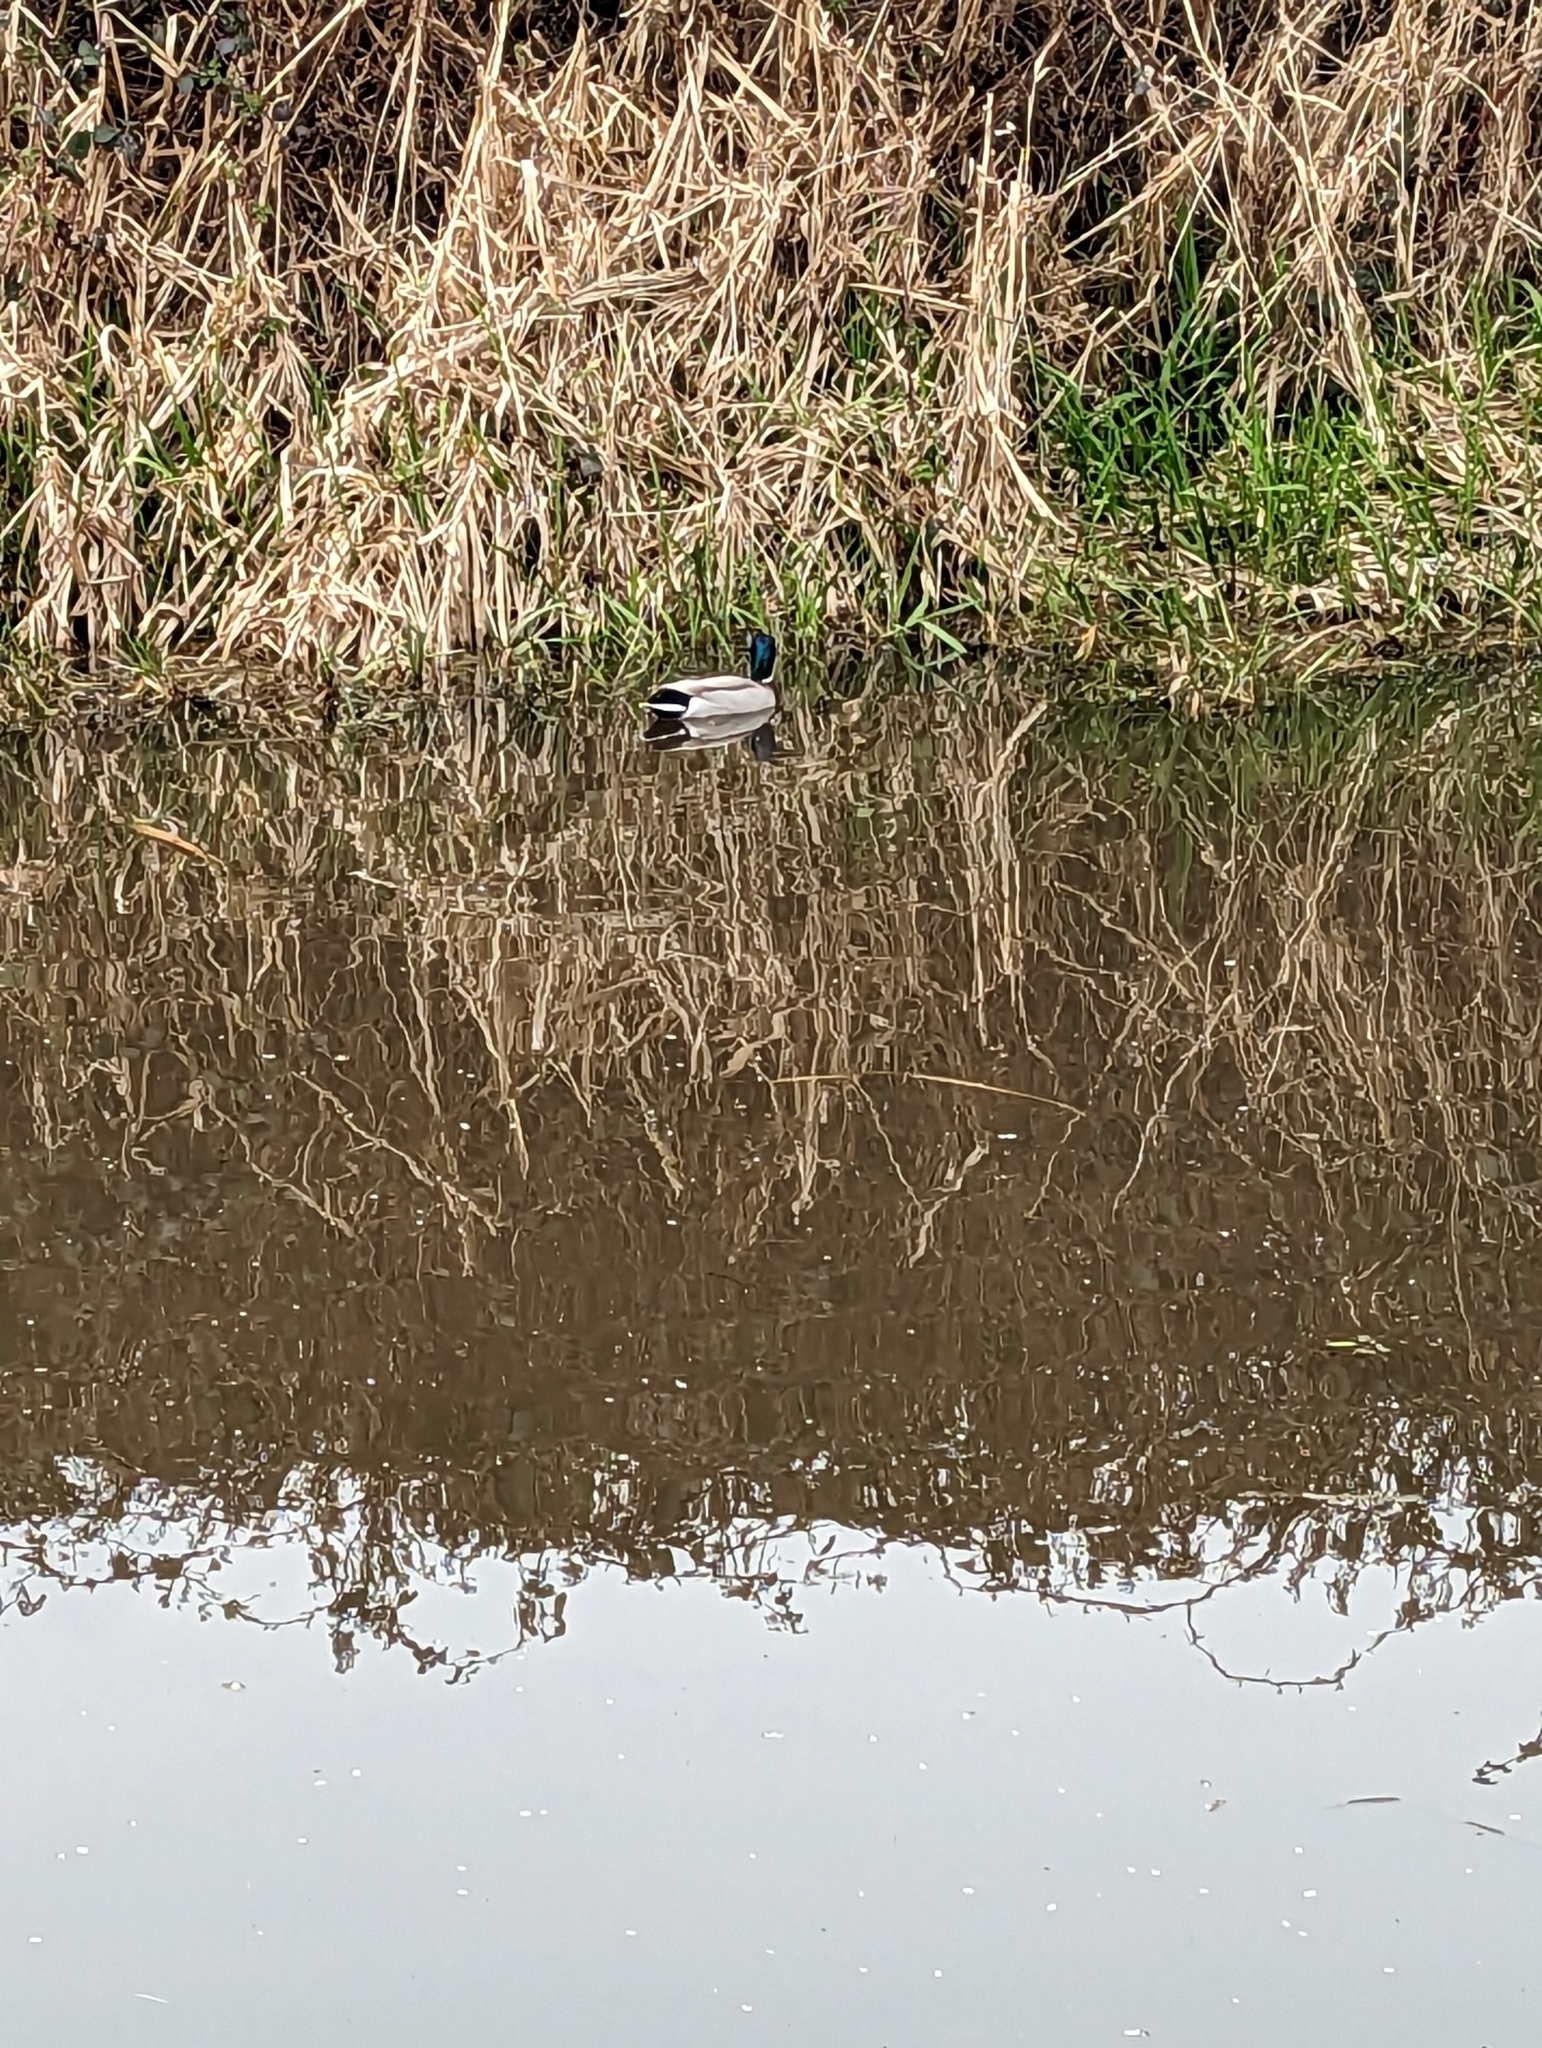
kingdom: Animalia
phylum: Chordata
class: Aves
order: Anseriformes
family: Anatidae
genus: Anas
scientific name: Anas platyrhynchos
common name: Mallard
